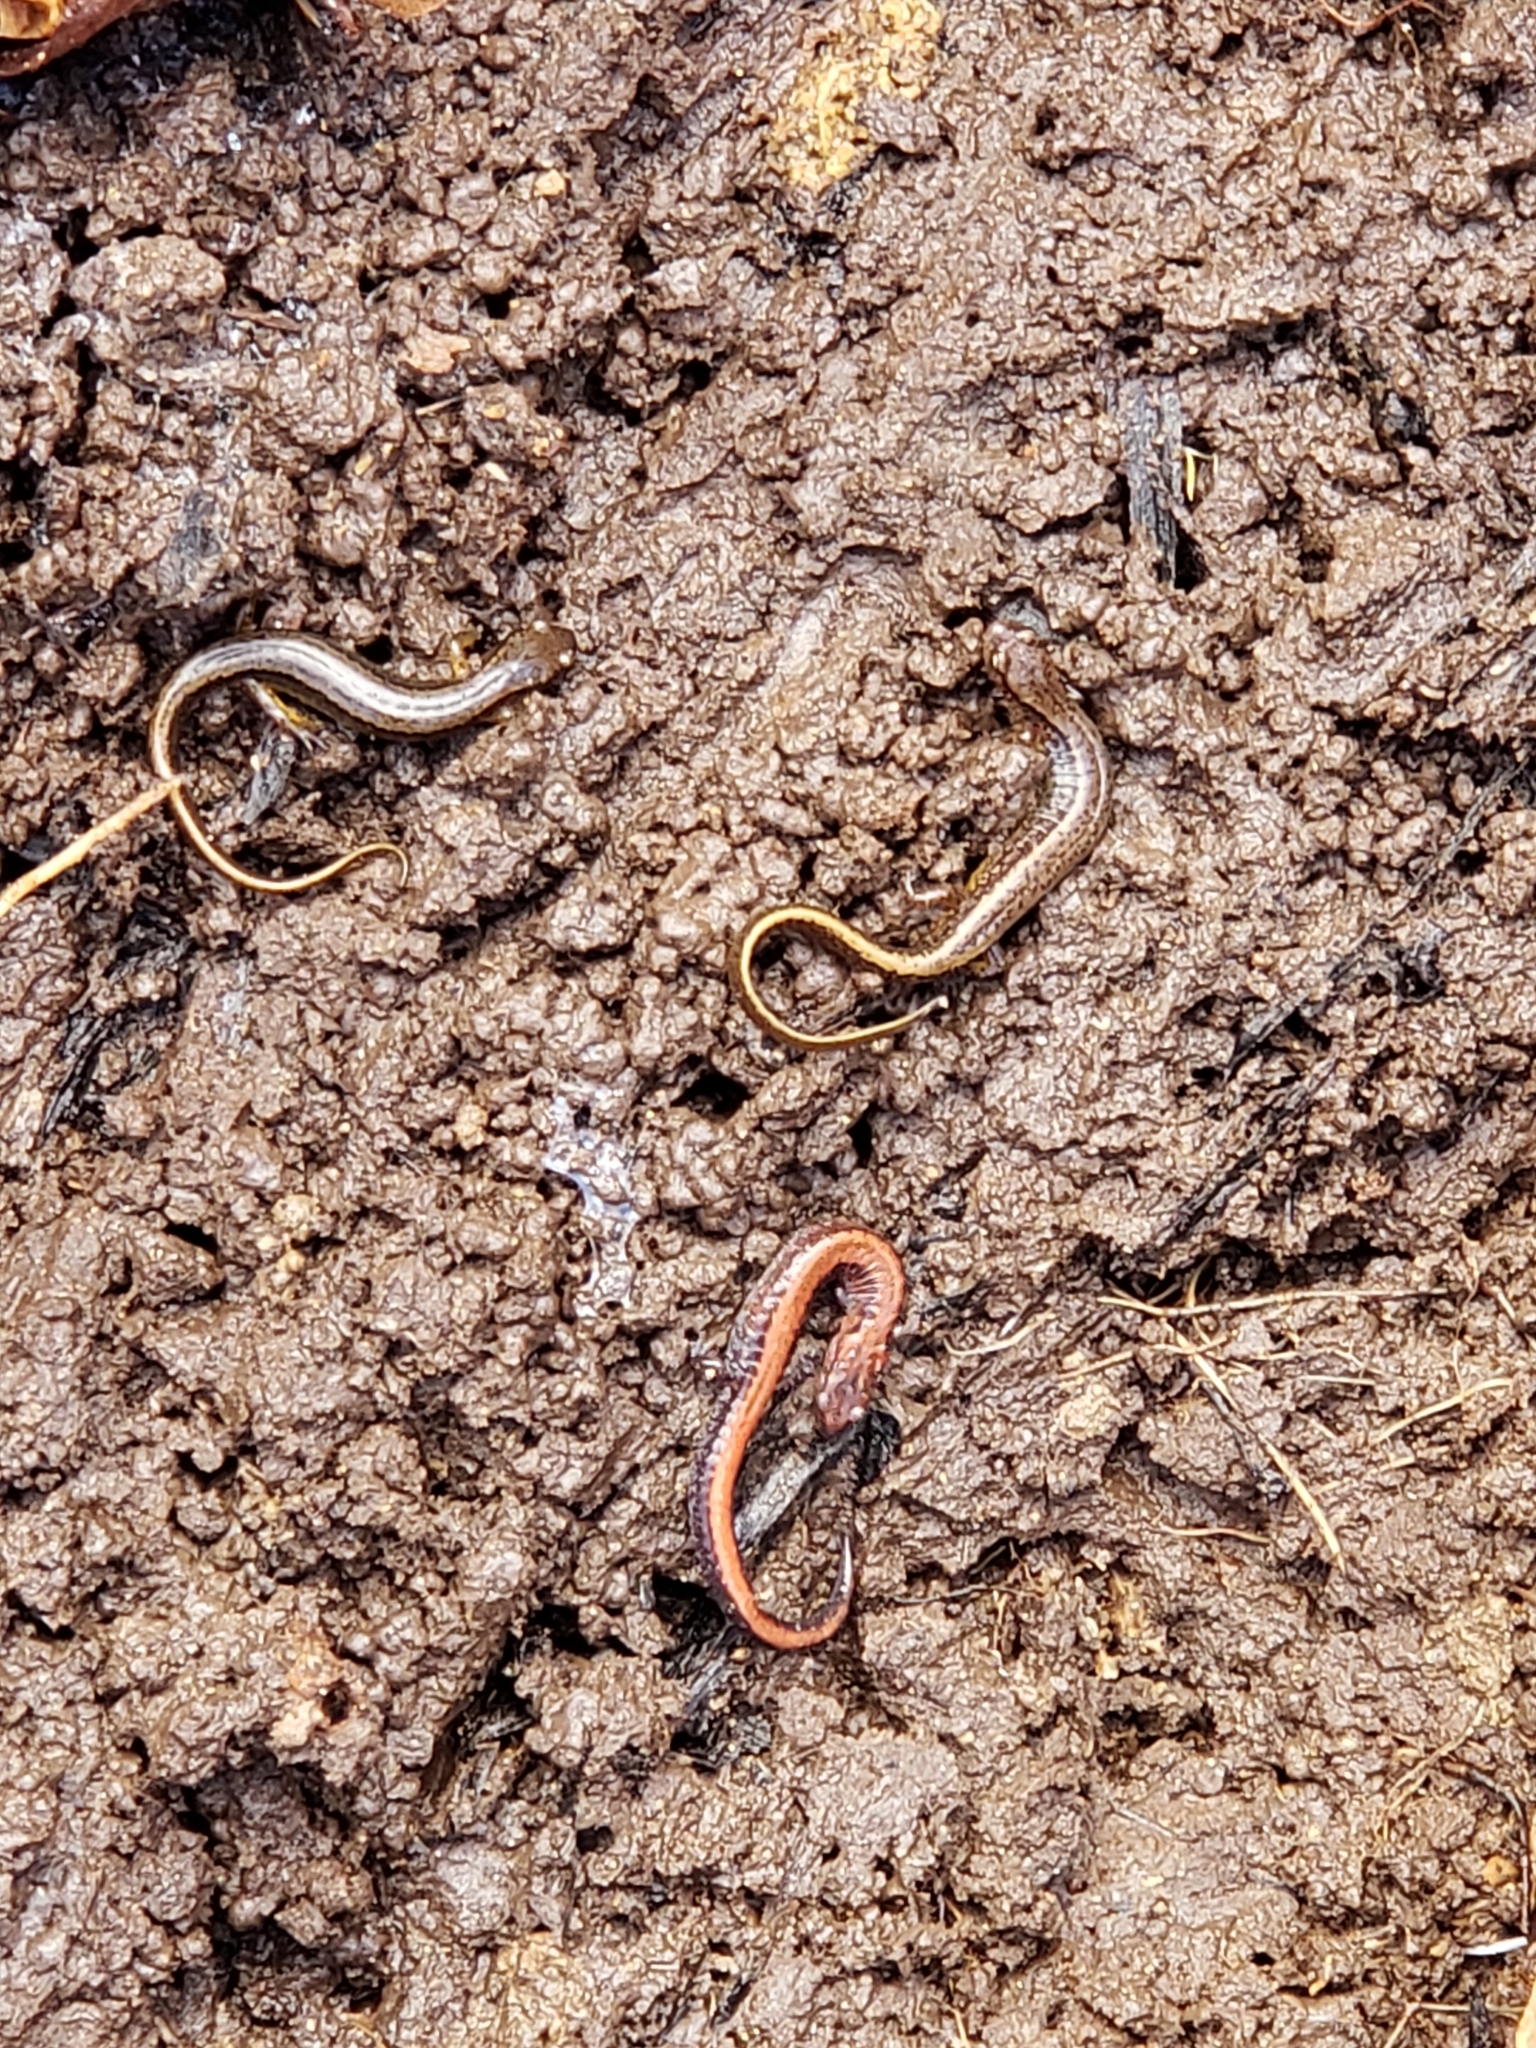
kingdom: Animalia
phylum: Chordata
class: Amphibia
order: Caudata
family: Plethodontidae
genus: Plethodon
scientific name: Plethodon cinereus
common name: Redback salamander
